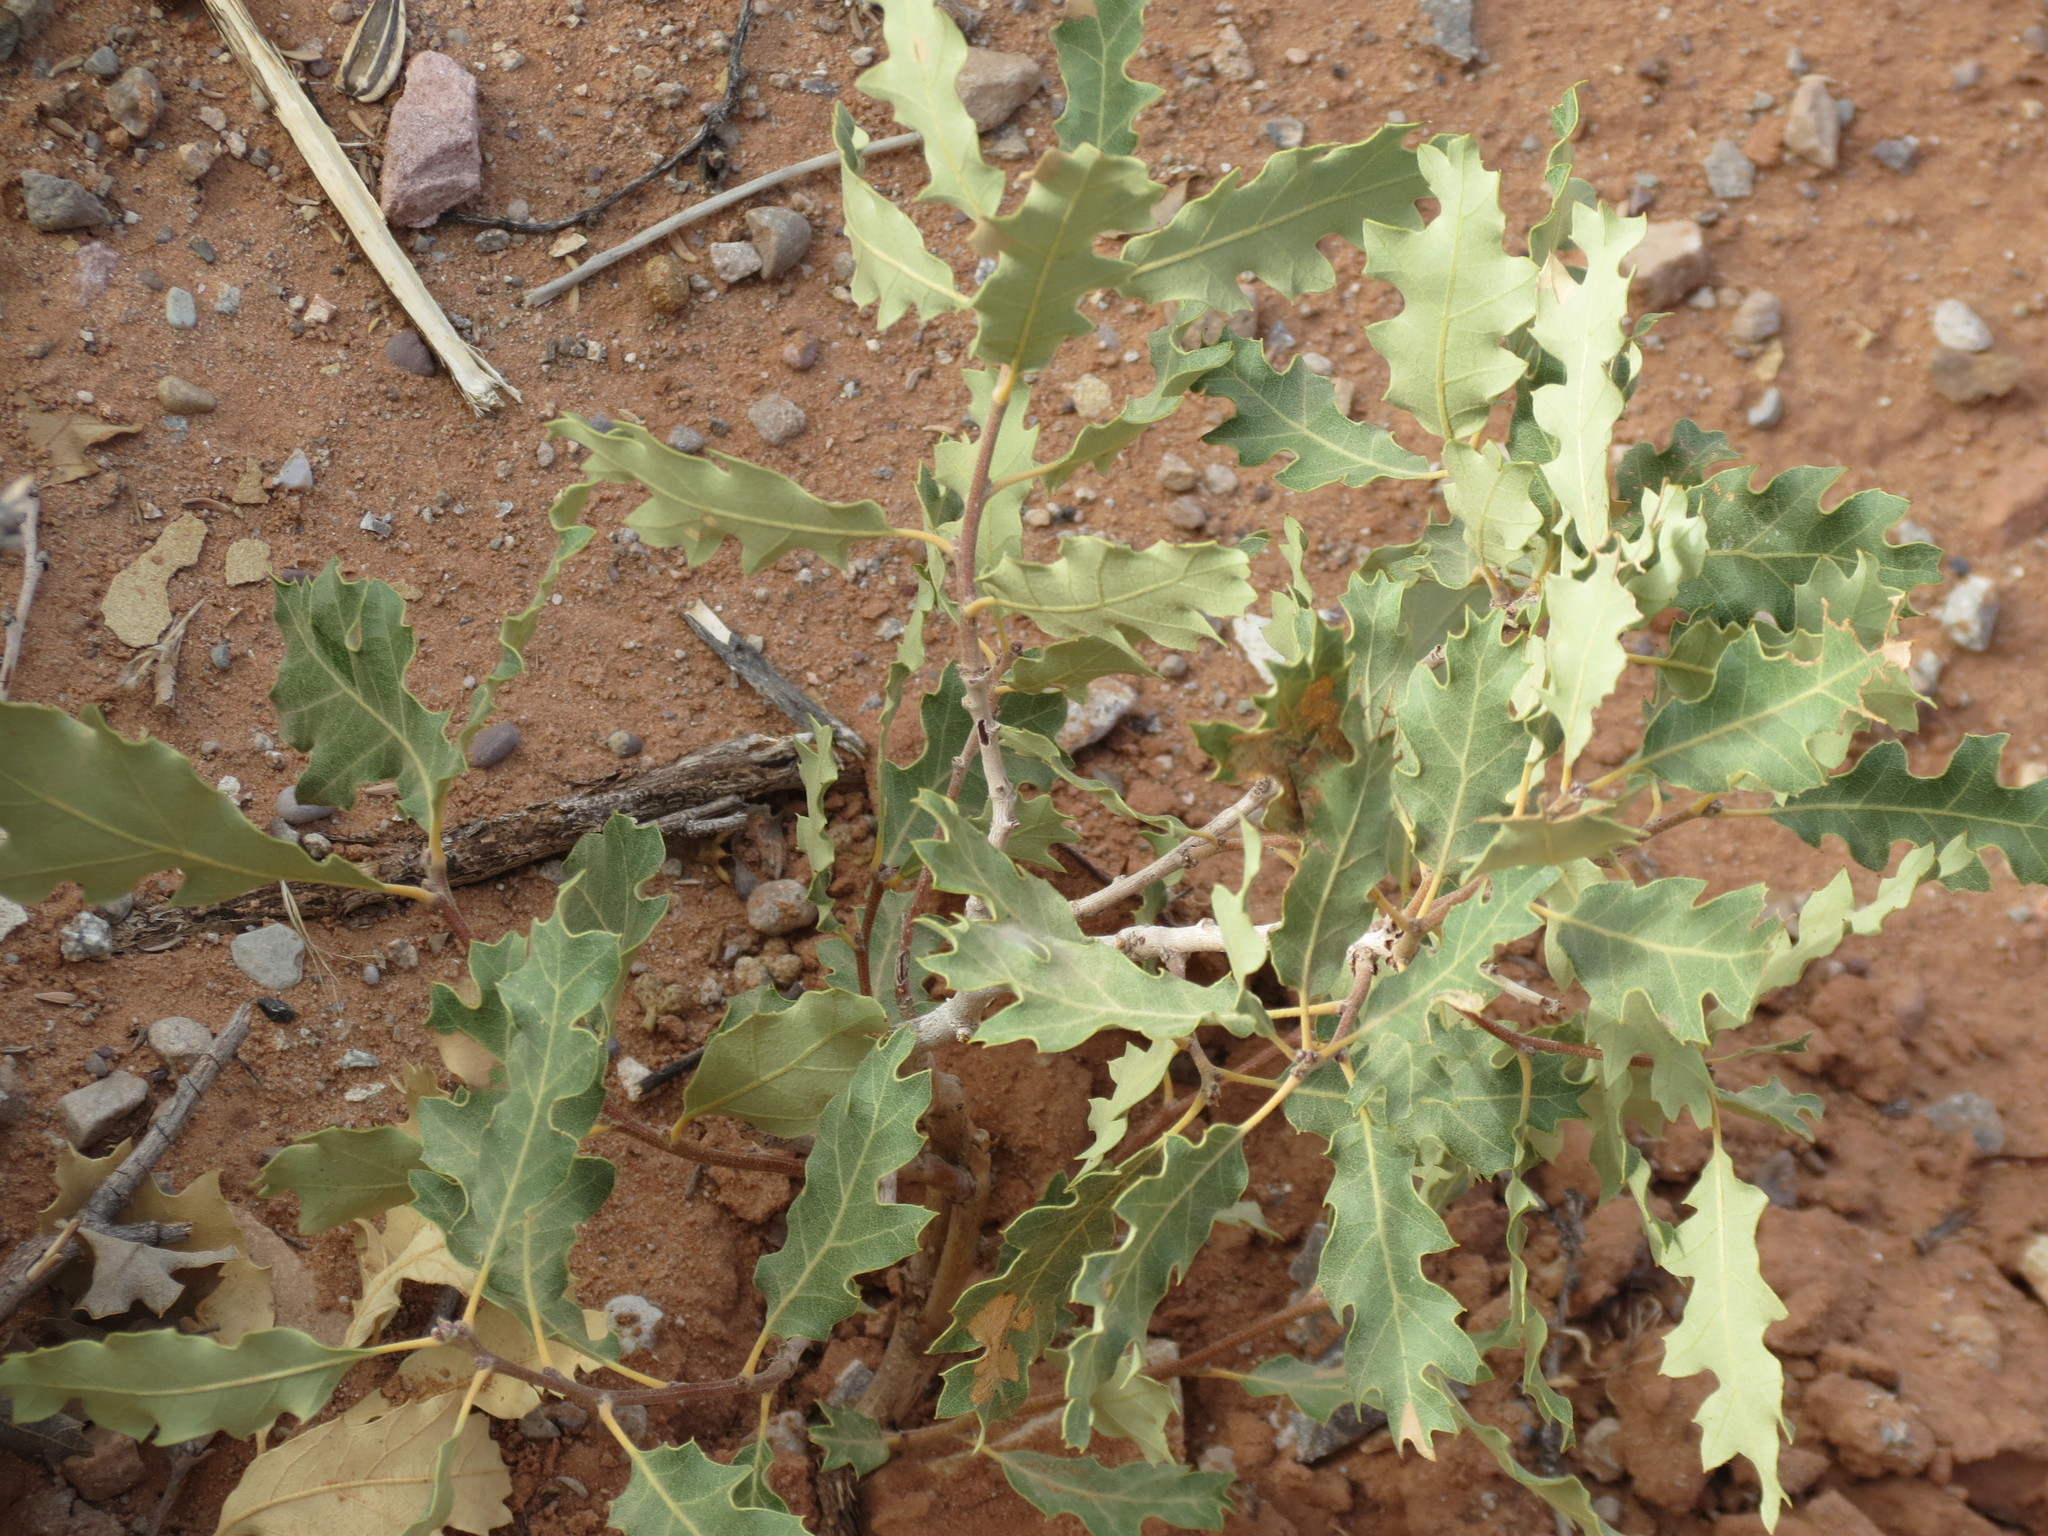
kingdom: Plantae
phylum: Tracheophyta
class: Magnoliopsida
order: Fagales
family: Fagaceae
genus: Quercus
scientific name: Quercus welshii
